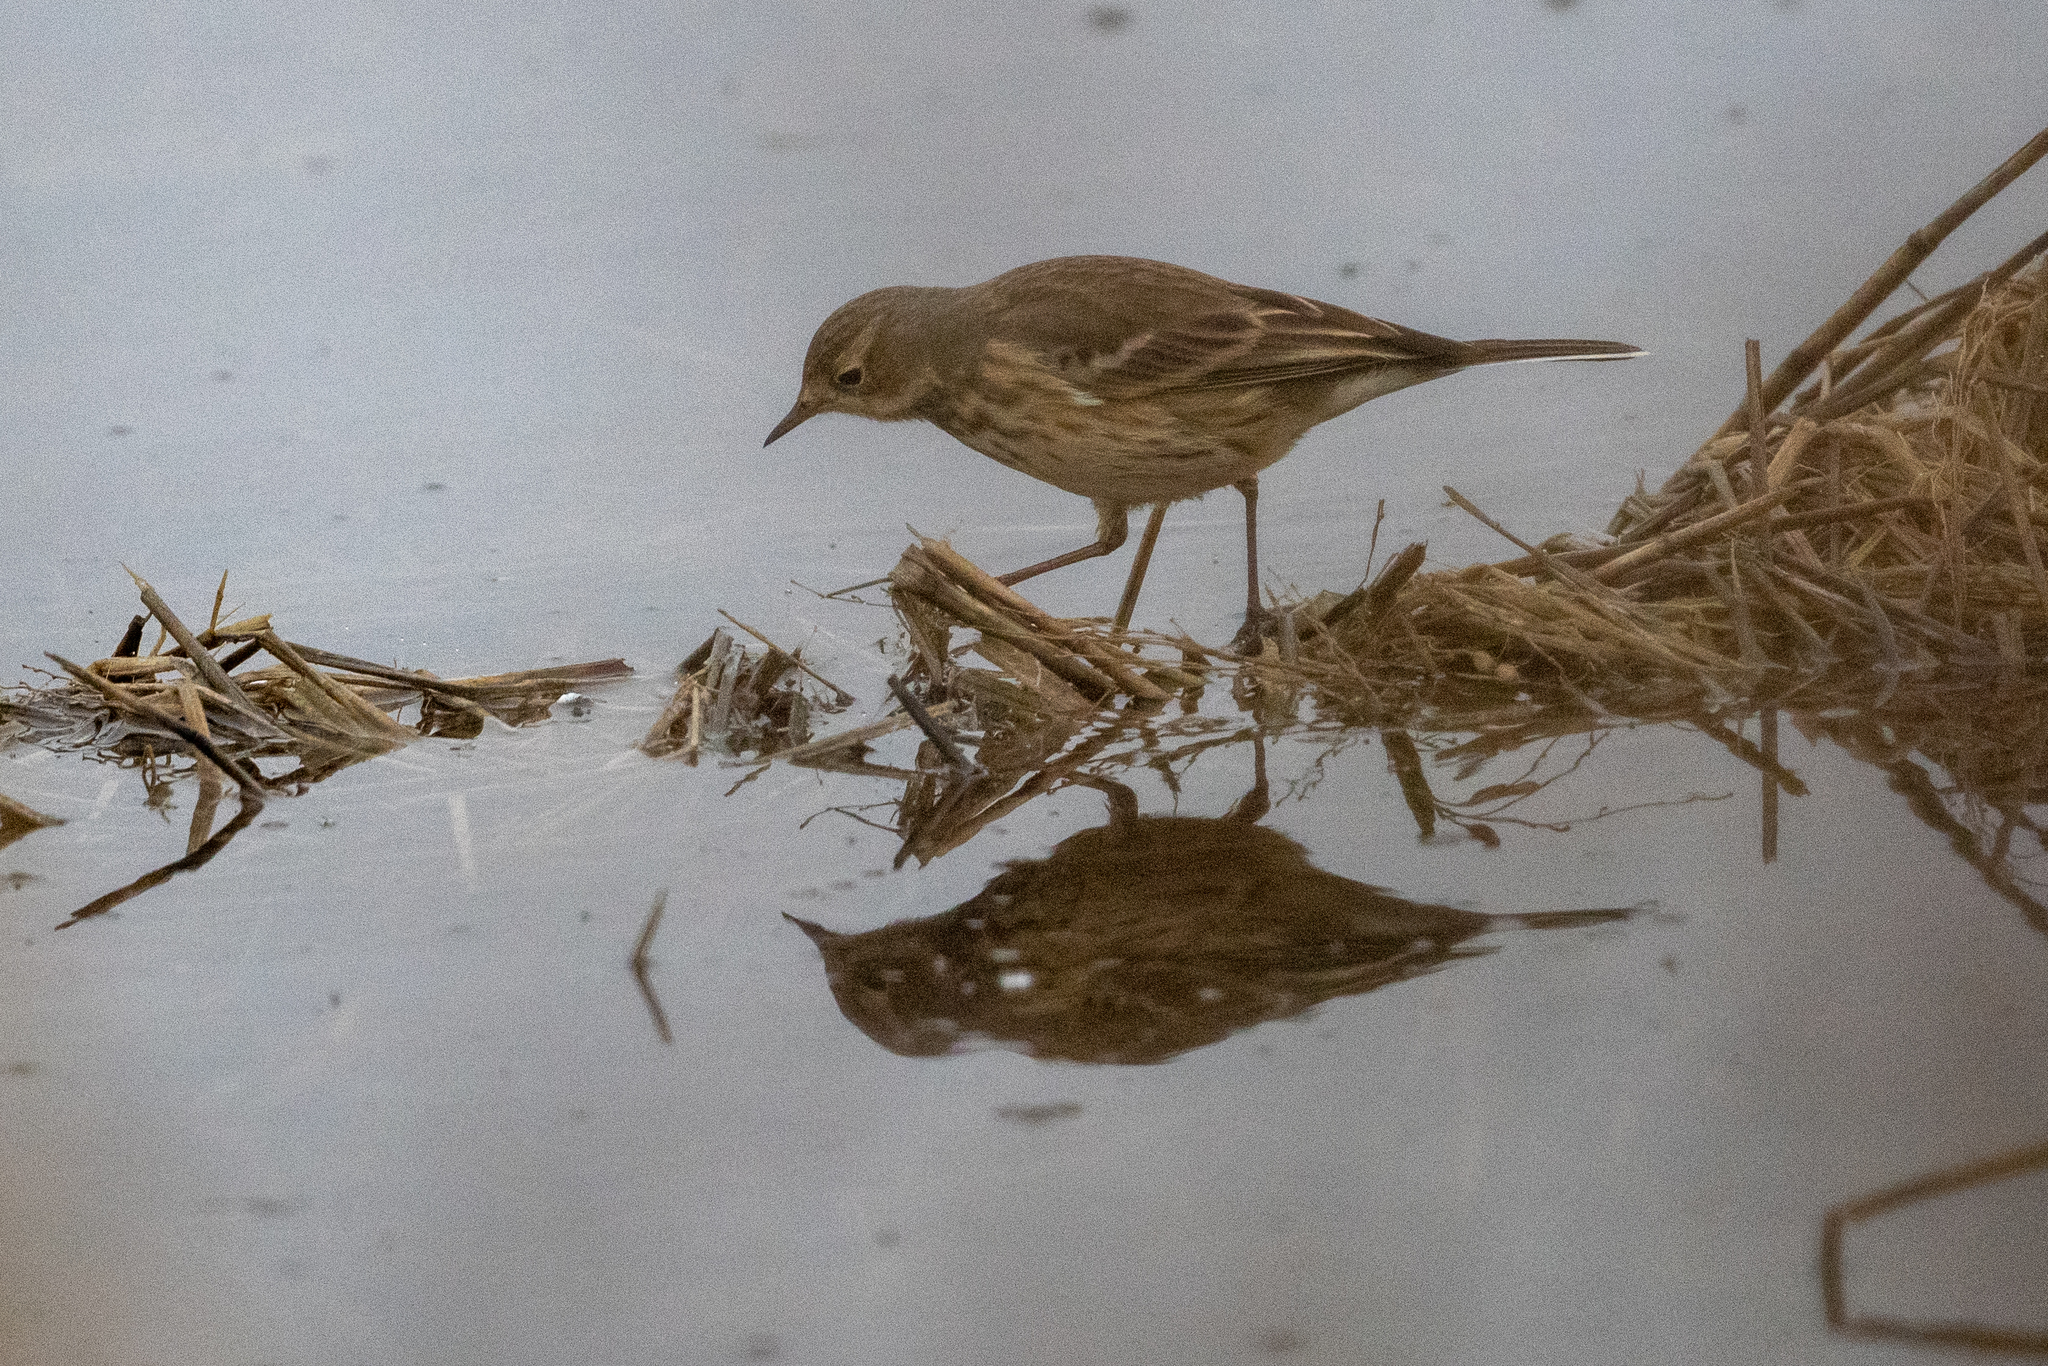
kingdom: Animalia
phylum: Chordata
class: Aves
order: Passeriformes
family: Motacillidae
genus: Anthus
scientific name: Anthus rubescens
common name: Buff-bellied pipit
